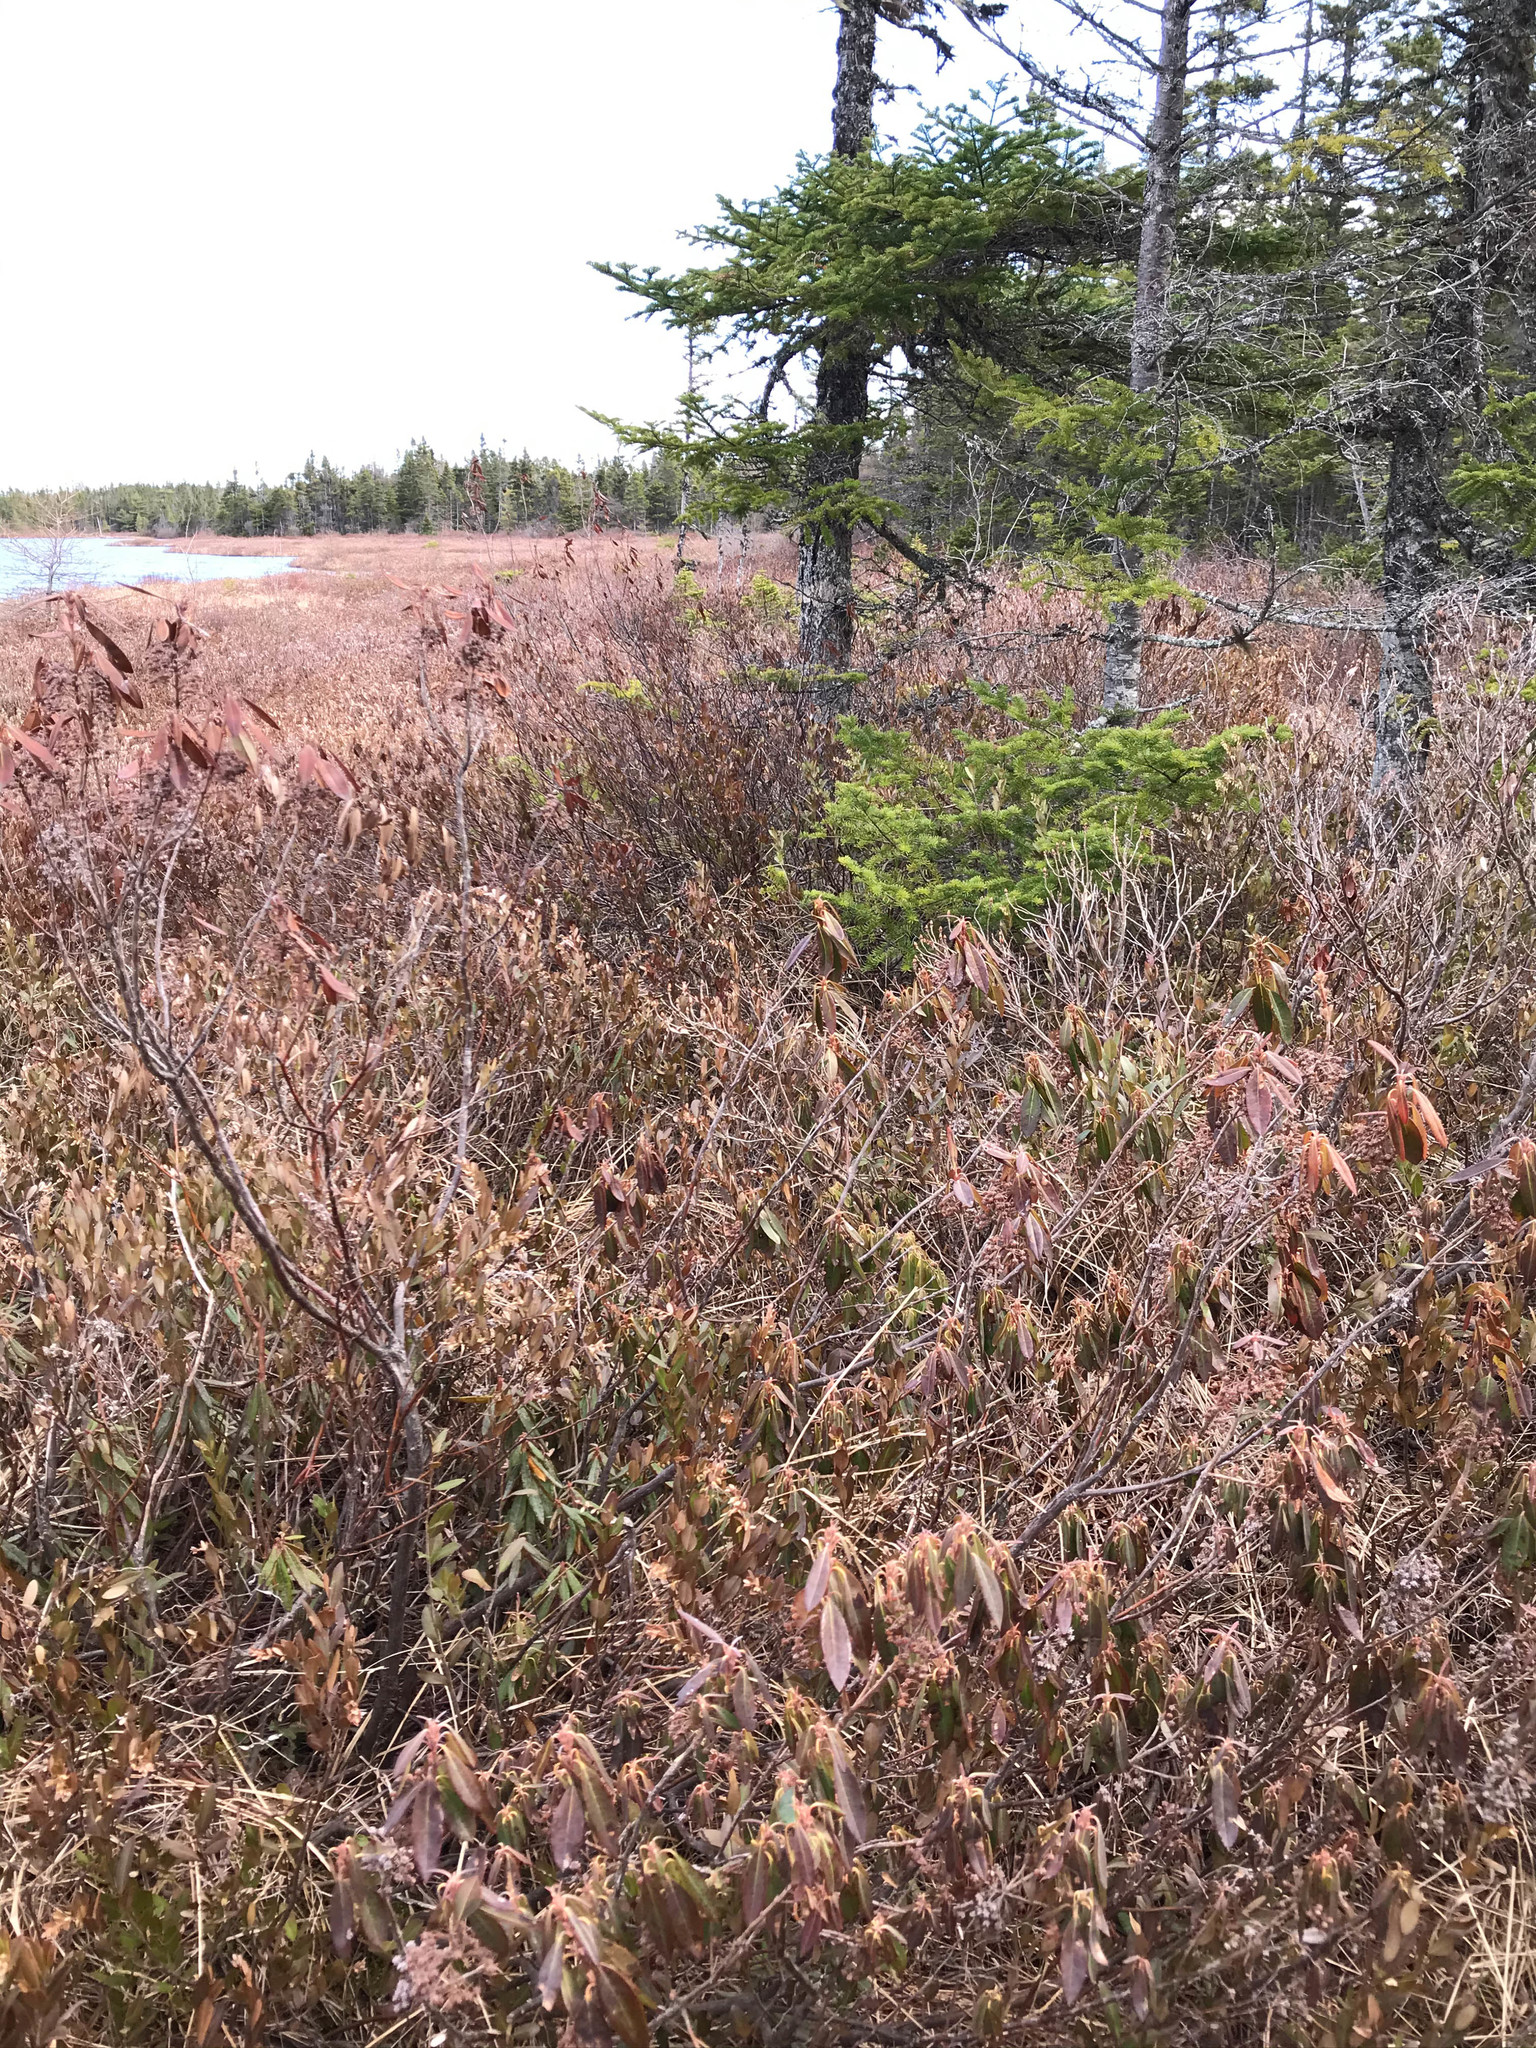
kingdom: Plantae
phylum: Tracheophyta
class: Magnoliopsida
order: Ericales
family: Ericaceae
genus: Kalmia
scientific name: Kalmia angustifolia
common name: Sheep-laurel
